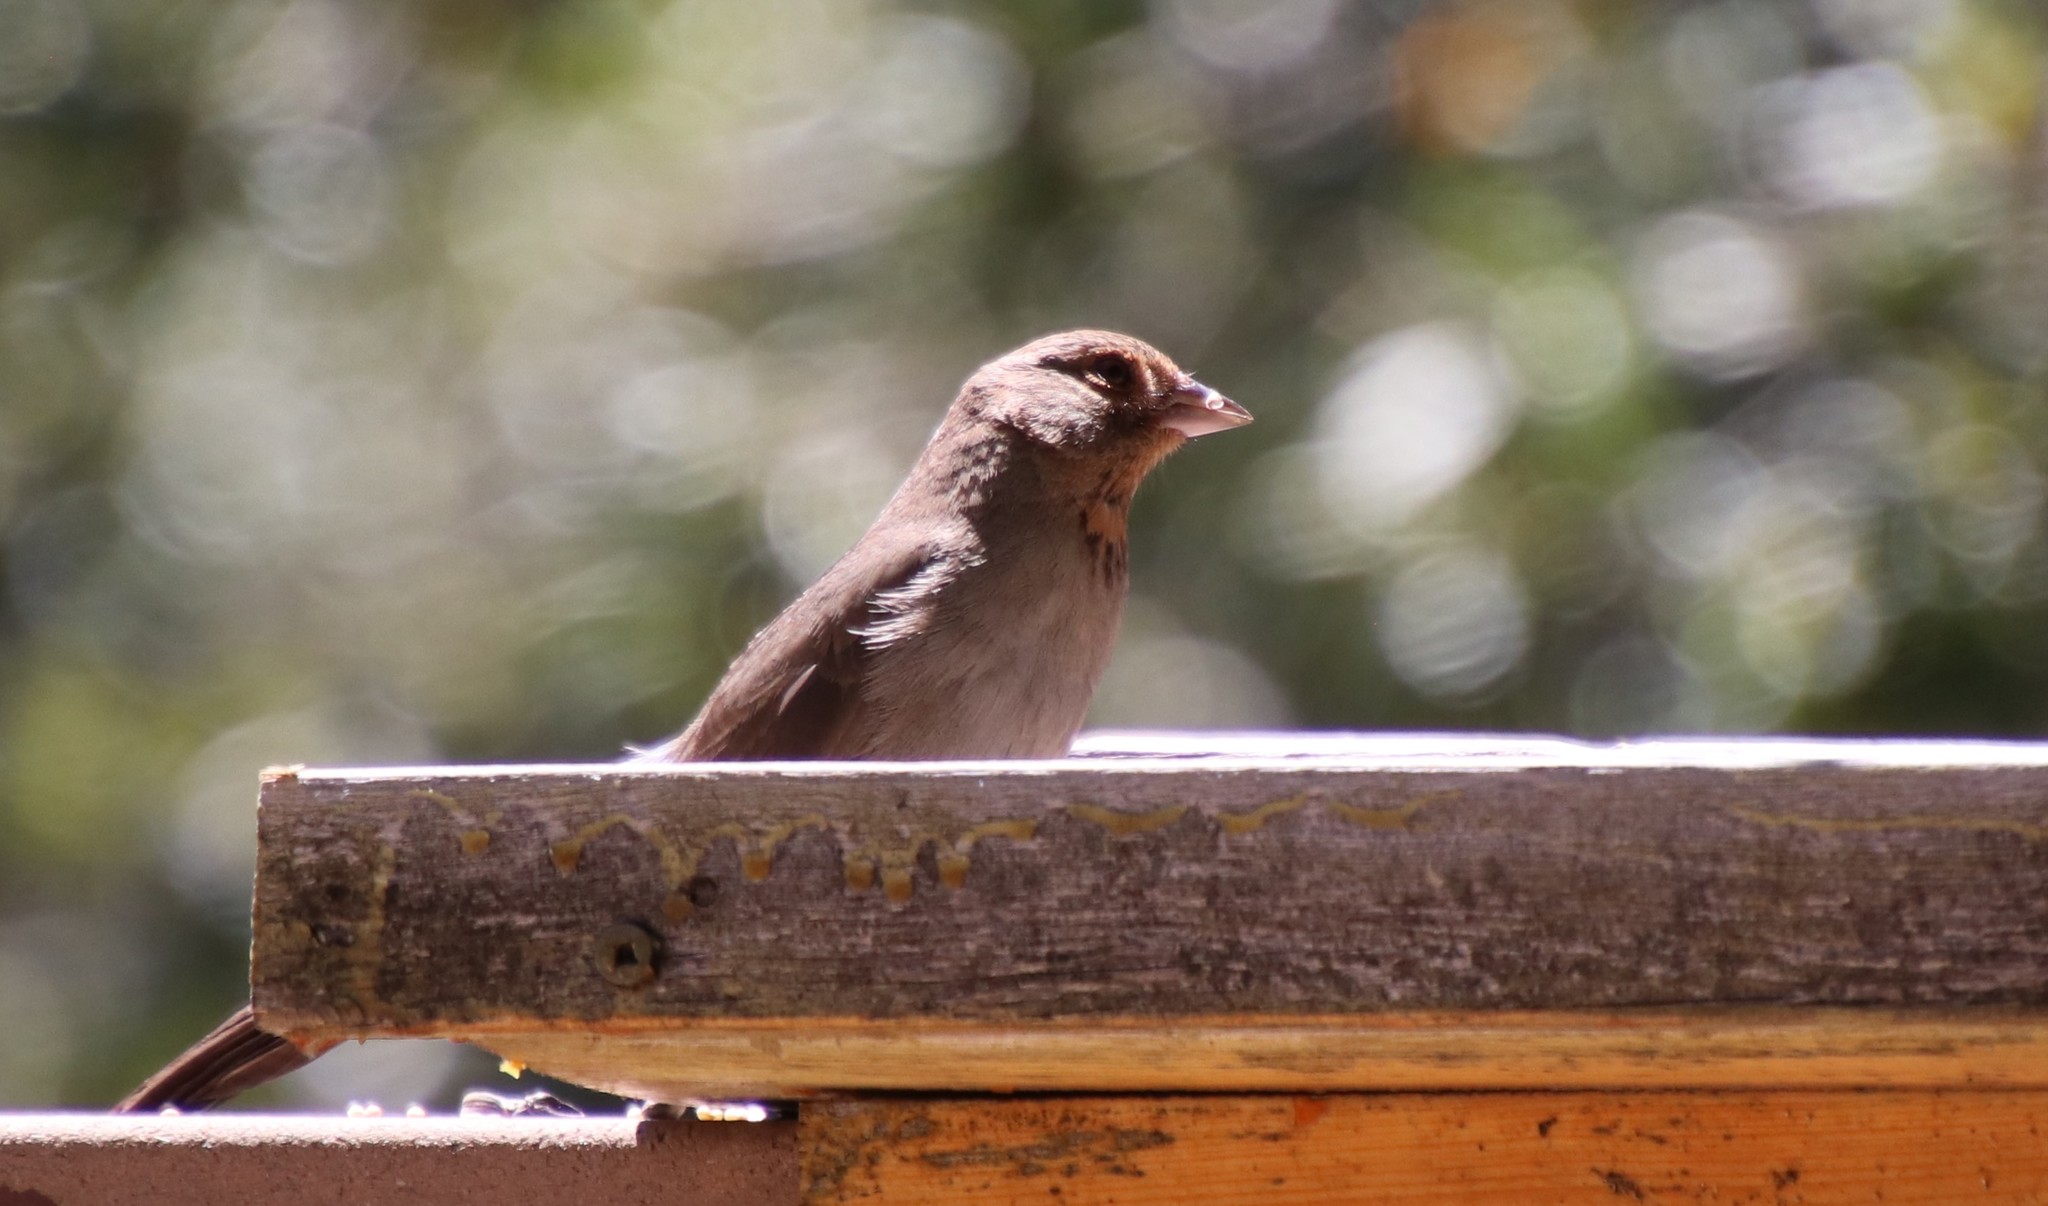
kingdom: Animalia
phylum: Chordata
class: Aves
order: Passeriformes
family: Passerellidae
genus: Melozone
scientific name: Melozone crissalis
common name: California towhee
